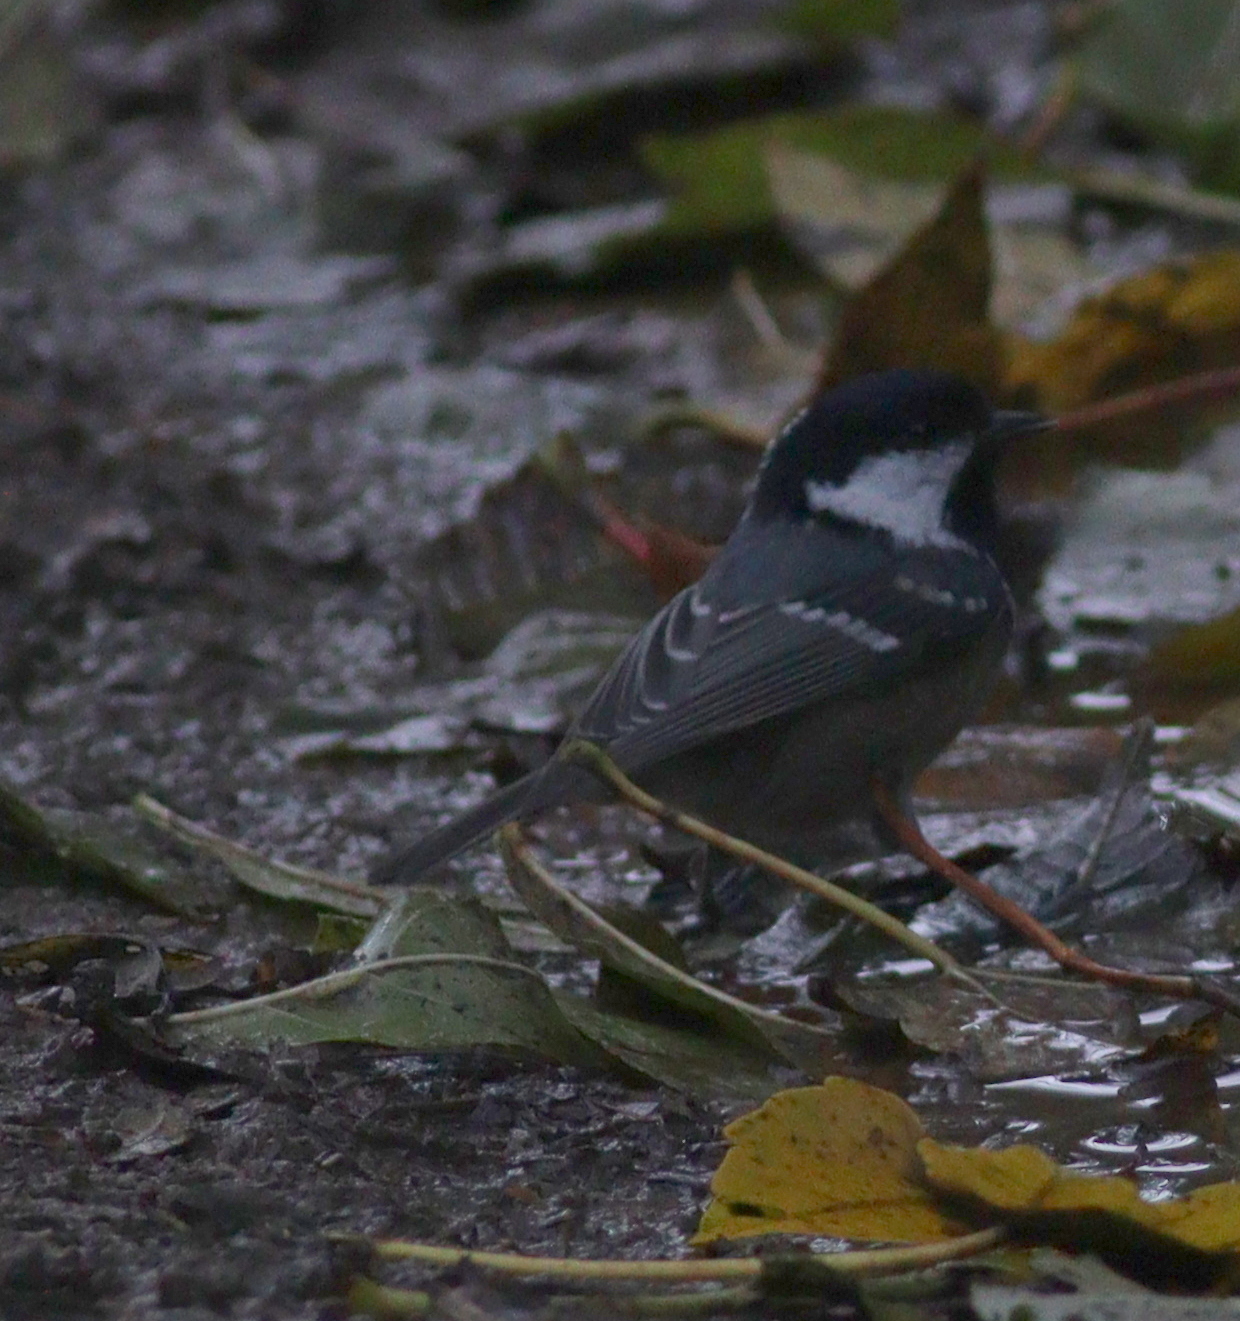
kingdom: Animalia
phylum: Chordata
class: Aves
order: Passeriformes
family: Paridae
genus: Periparus
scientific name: Periparus ater
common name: Coal tit
